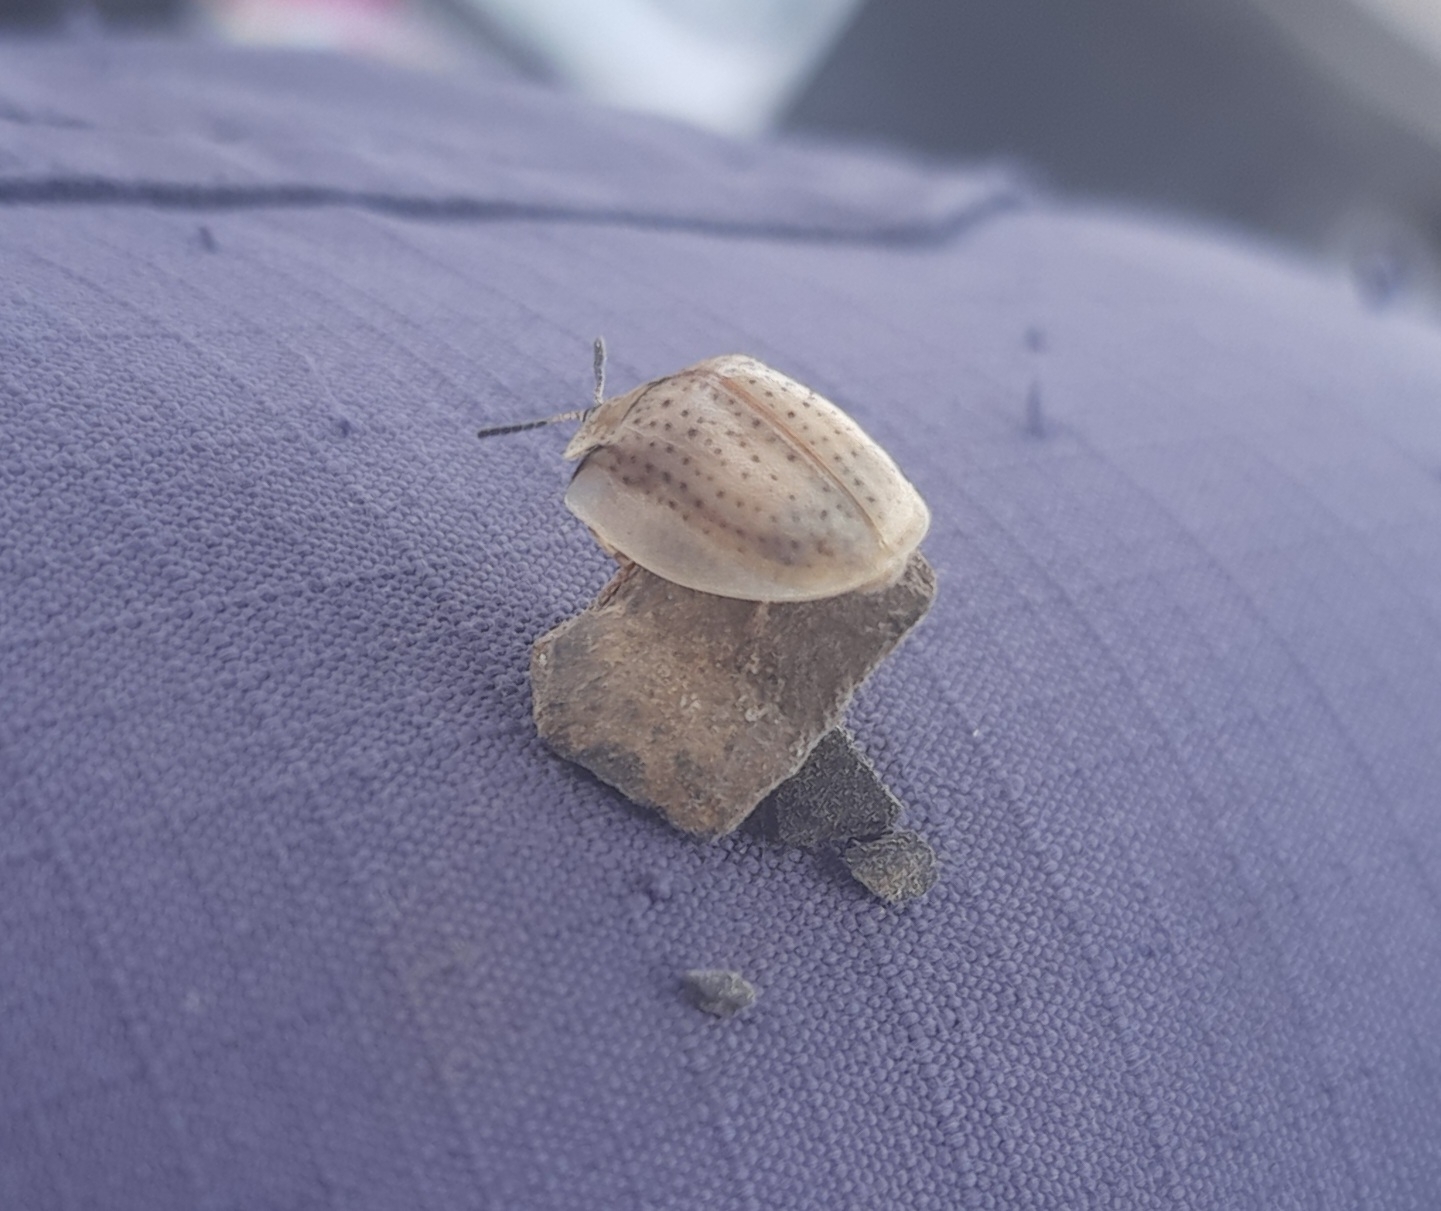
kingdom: Animalia
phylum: Arthropoda
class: Insecta
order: Coleoptera
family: Chrysomelidae
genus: Anacassis
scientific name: Anacassis dubia
